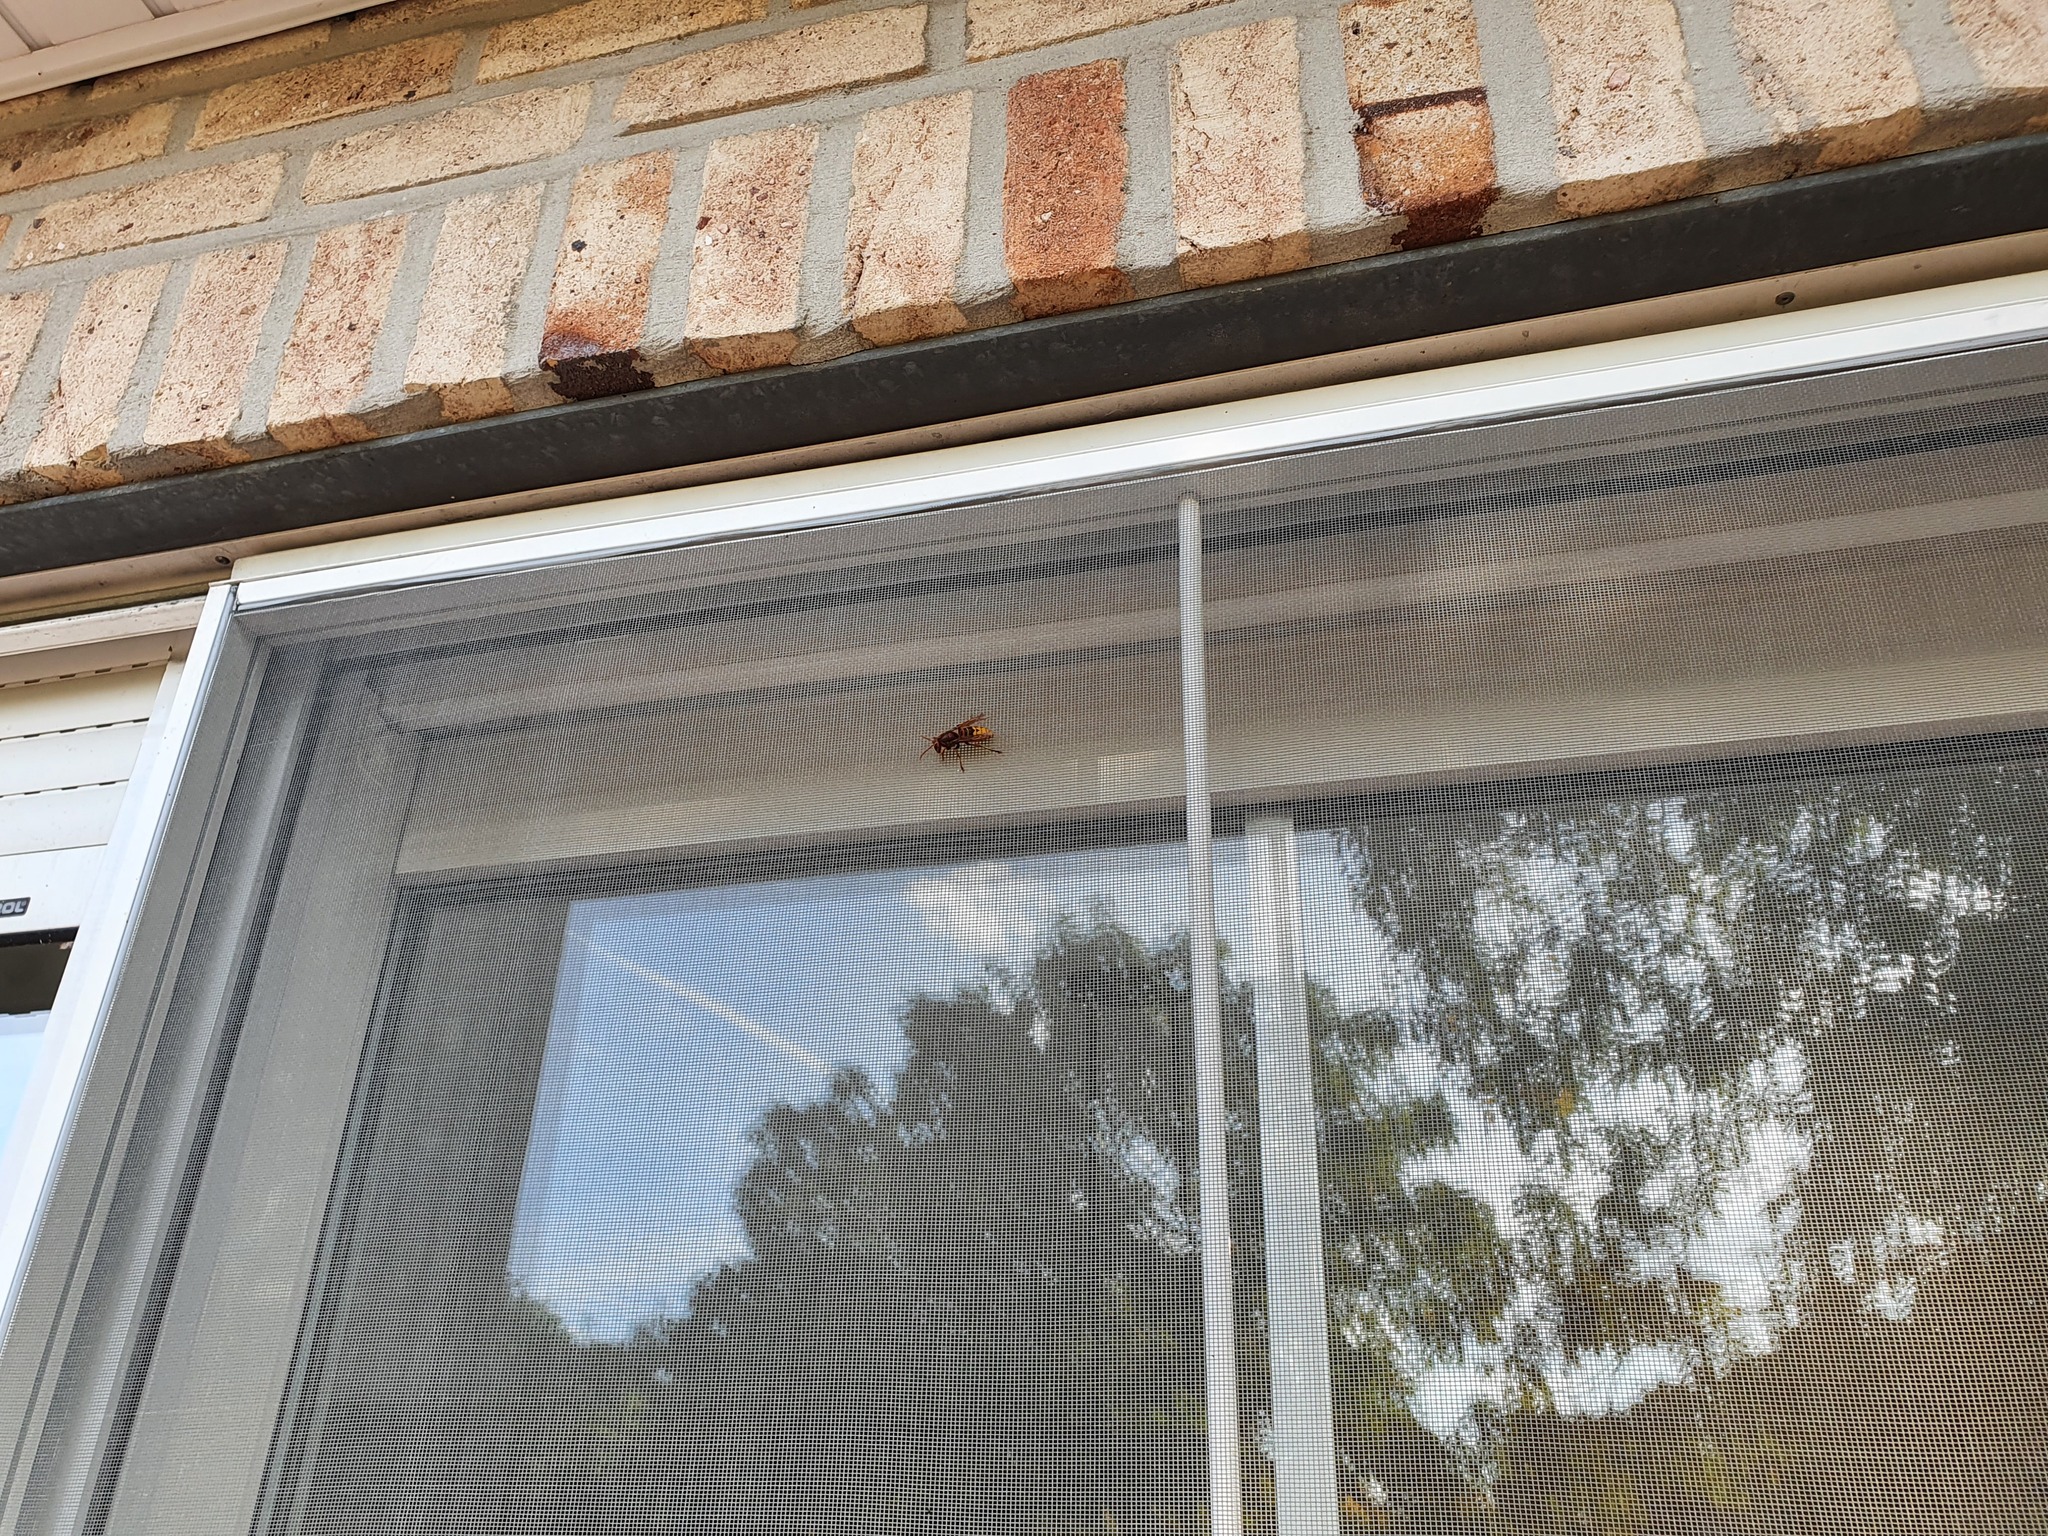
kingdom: Animalia
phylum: Arthropoda
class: Insecta
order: Hymenoptera
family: Vespidae
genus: Vespa
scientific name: Vespa crabro
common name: Hornet
